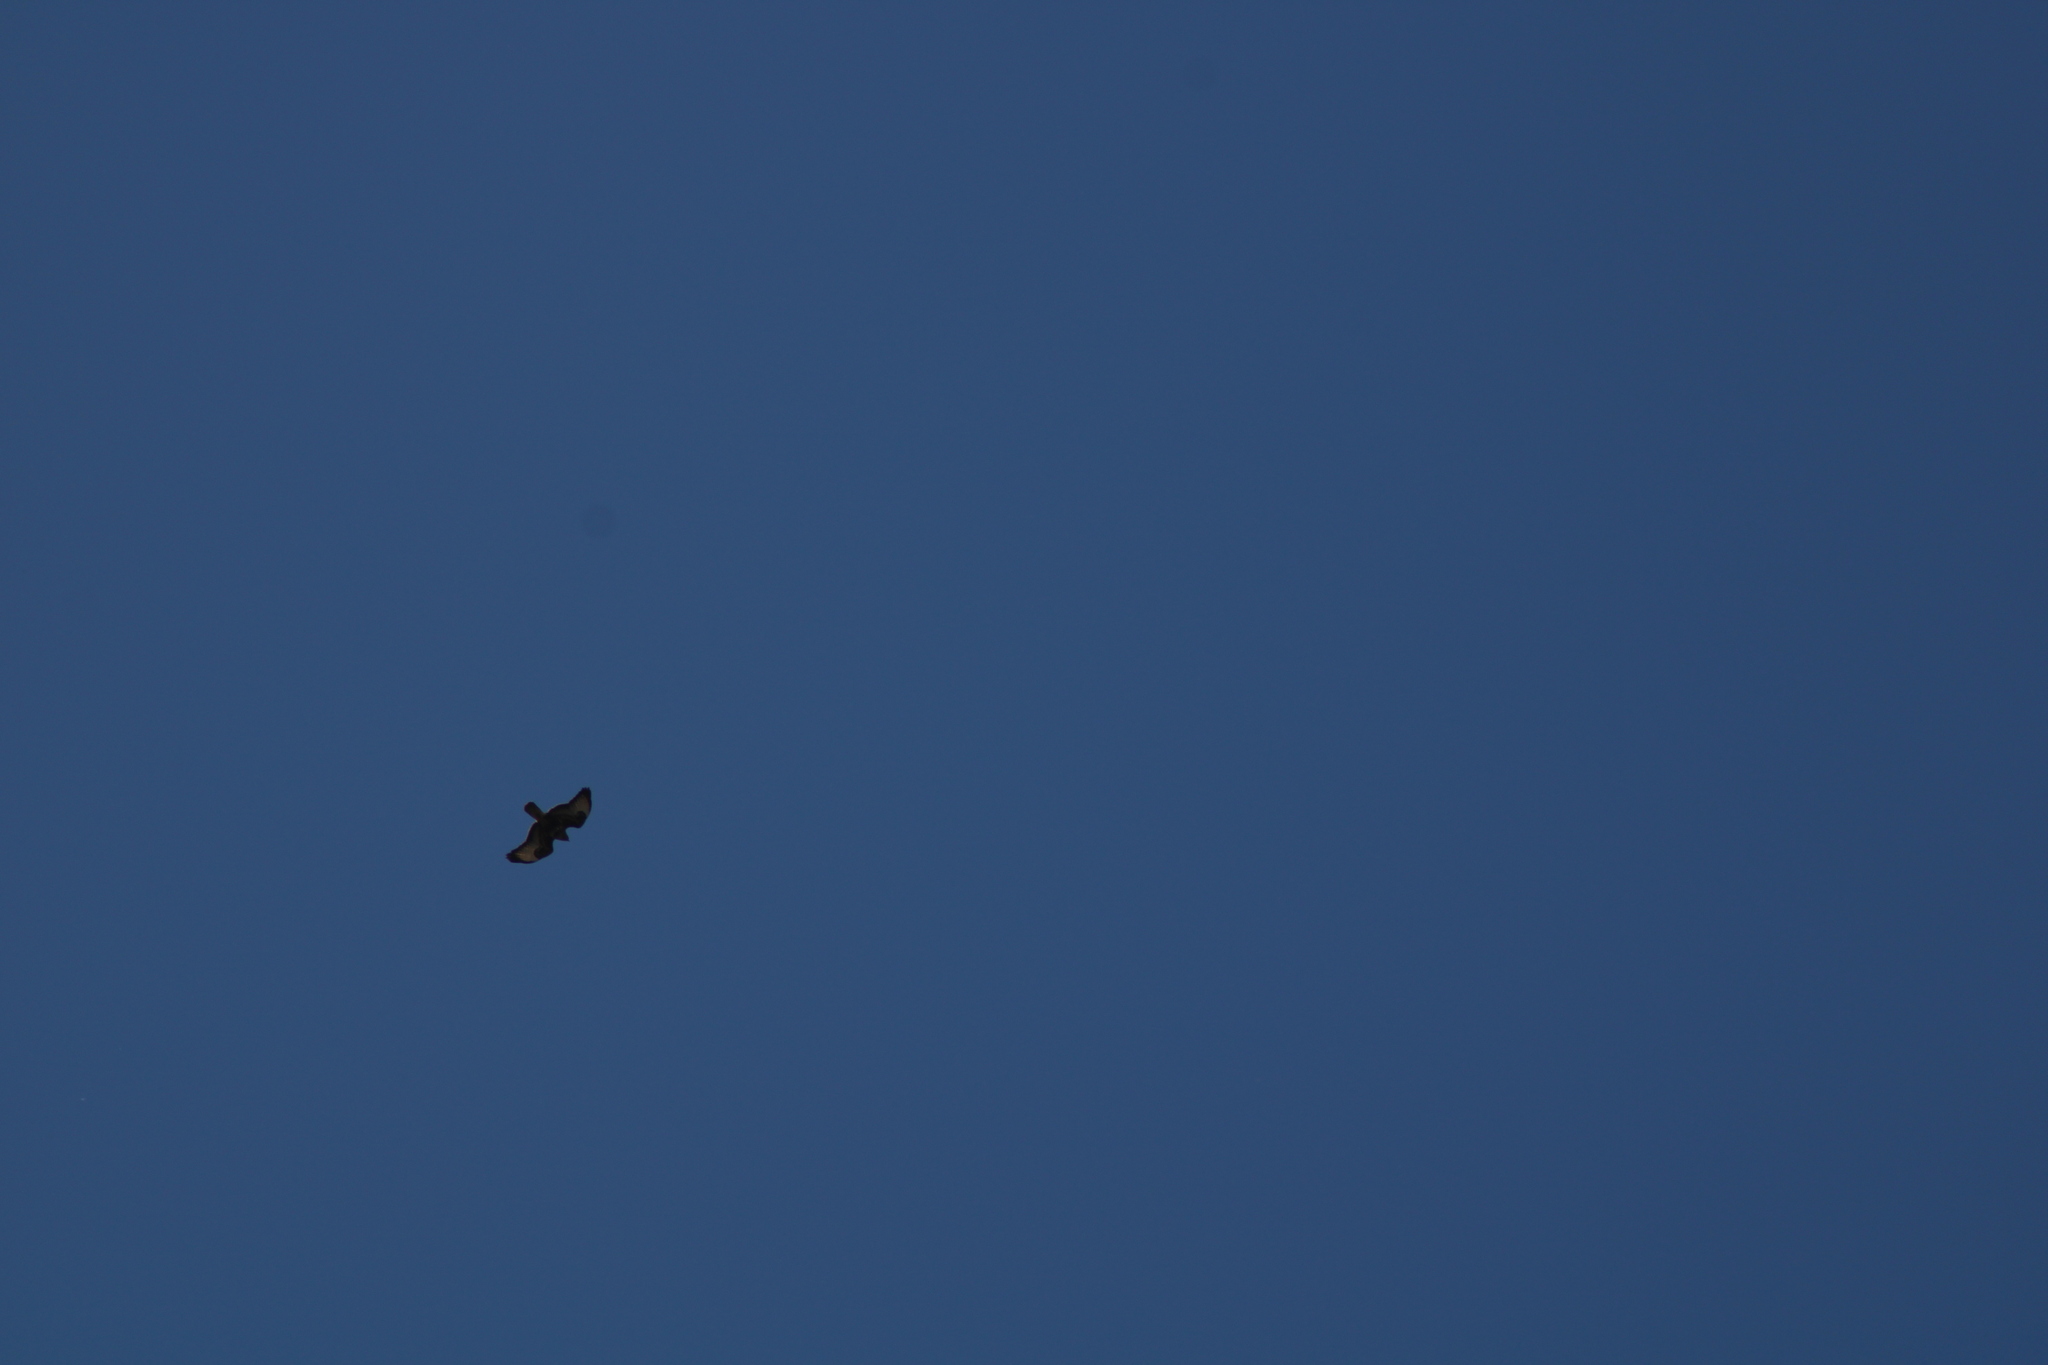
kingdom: Animalia
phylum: Chordata
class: Aves
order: Accipitriformes
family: Accipitridae
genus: Buteo
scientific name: Buteo buteo
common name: Common buzzard
